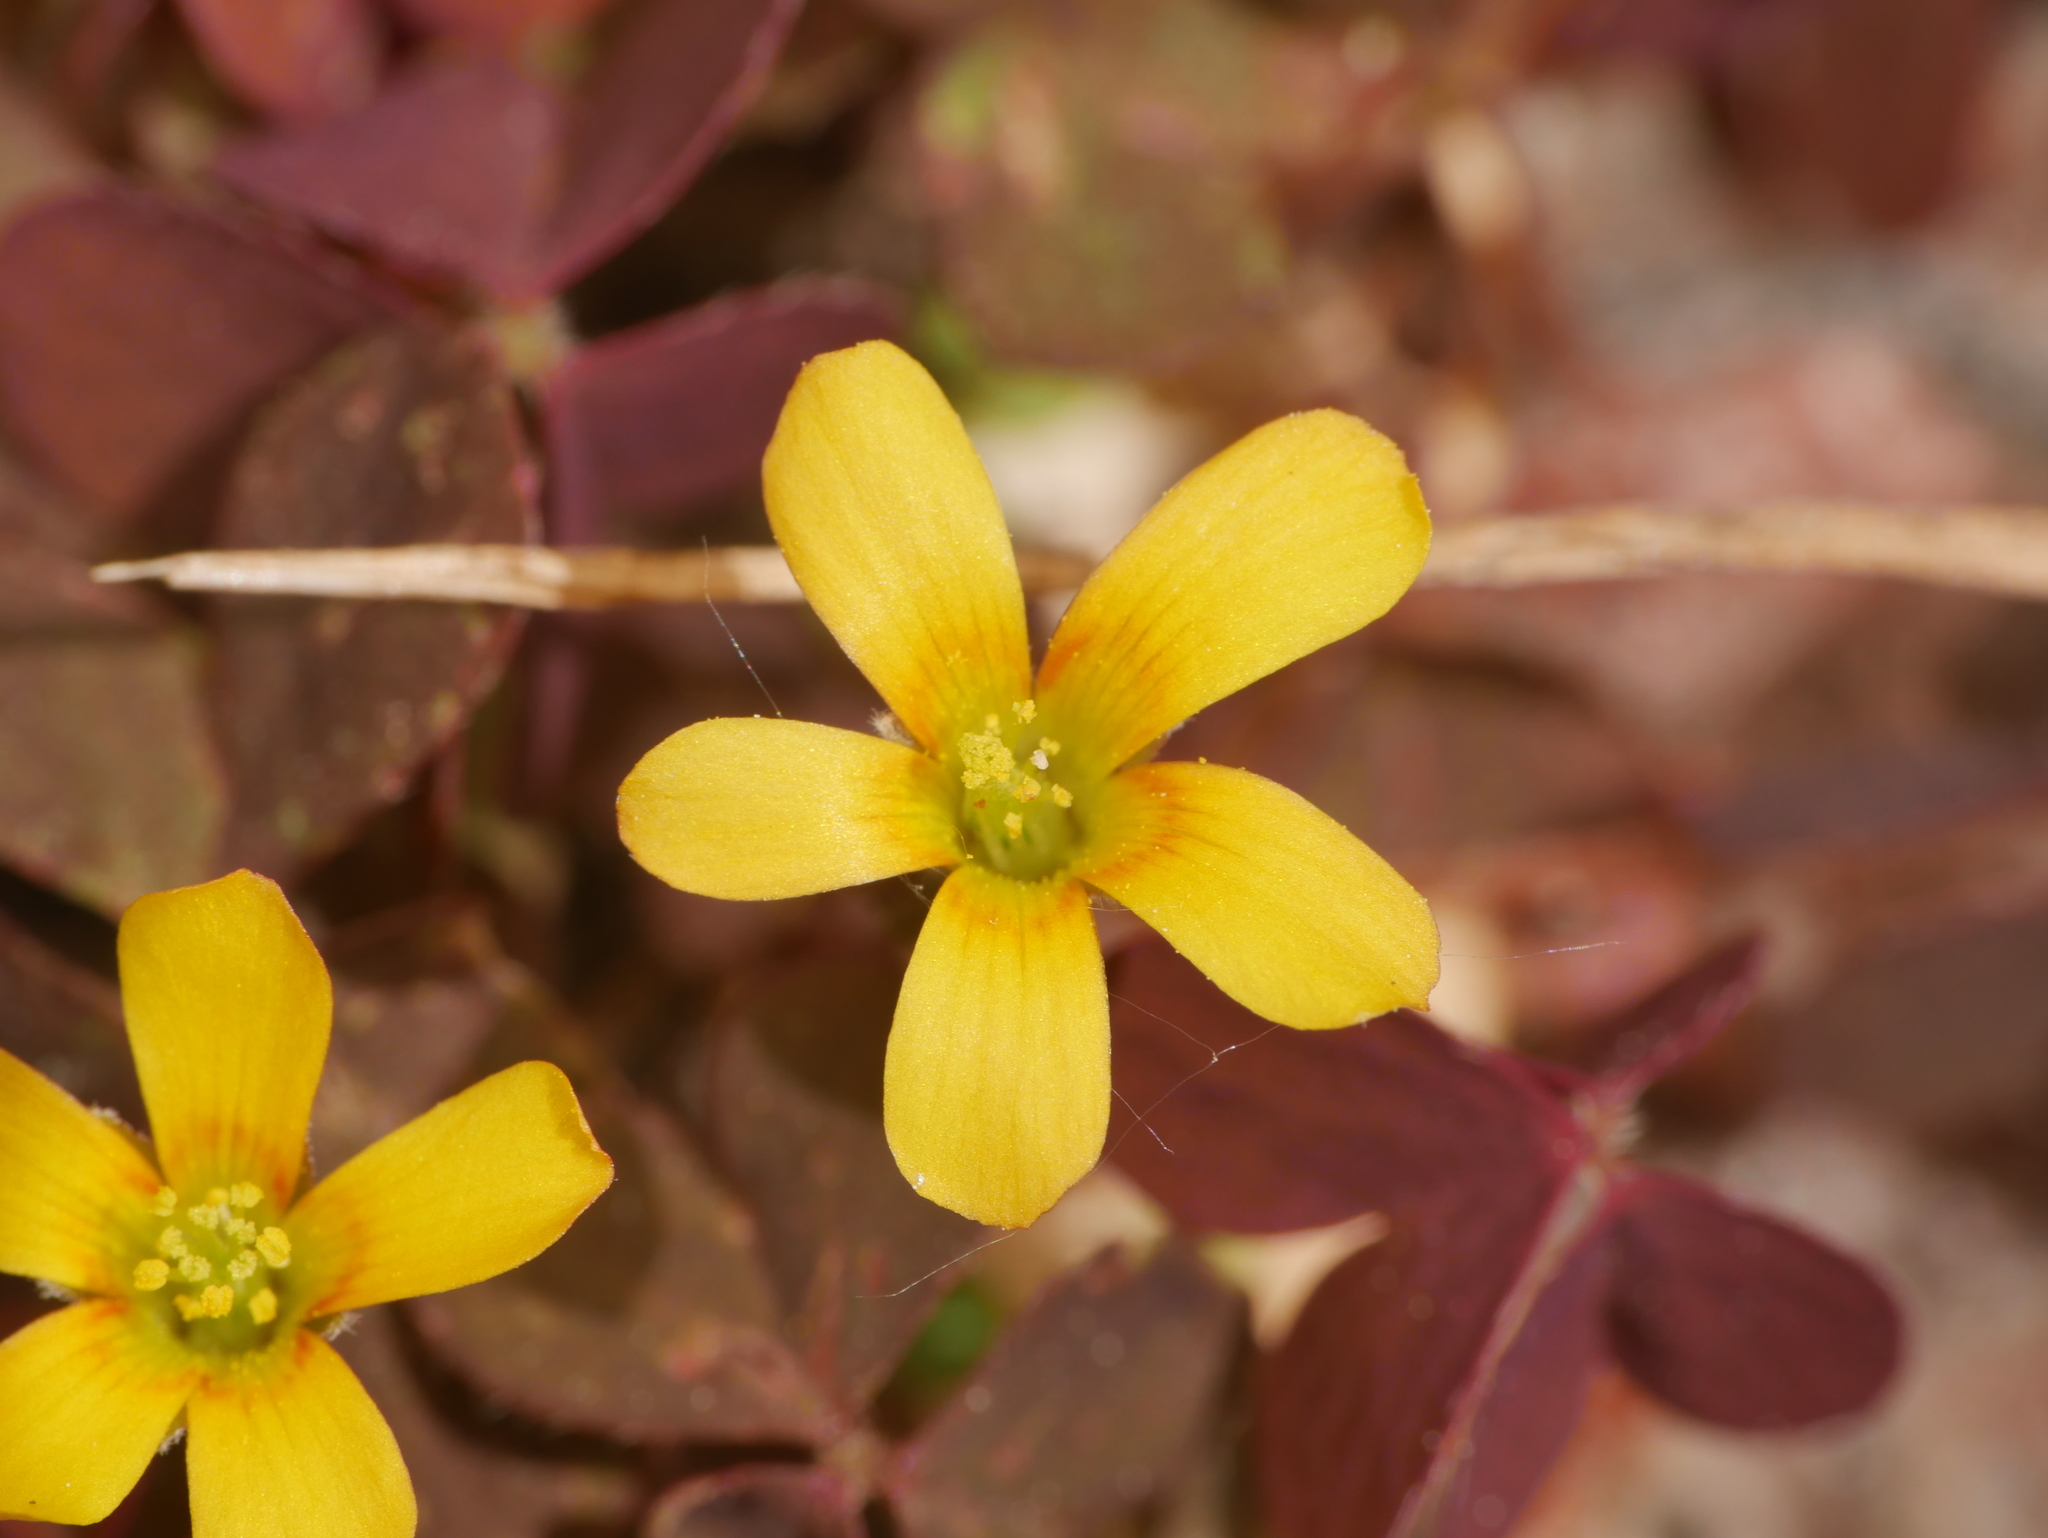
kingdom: Plantae
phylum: Tracheophyta
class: Magnoliopsida
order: Oxalidales
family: Oxalidaceae
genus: Oxalis
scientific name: Oxalis corniculata
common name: Procumbent yellow-sorrel
